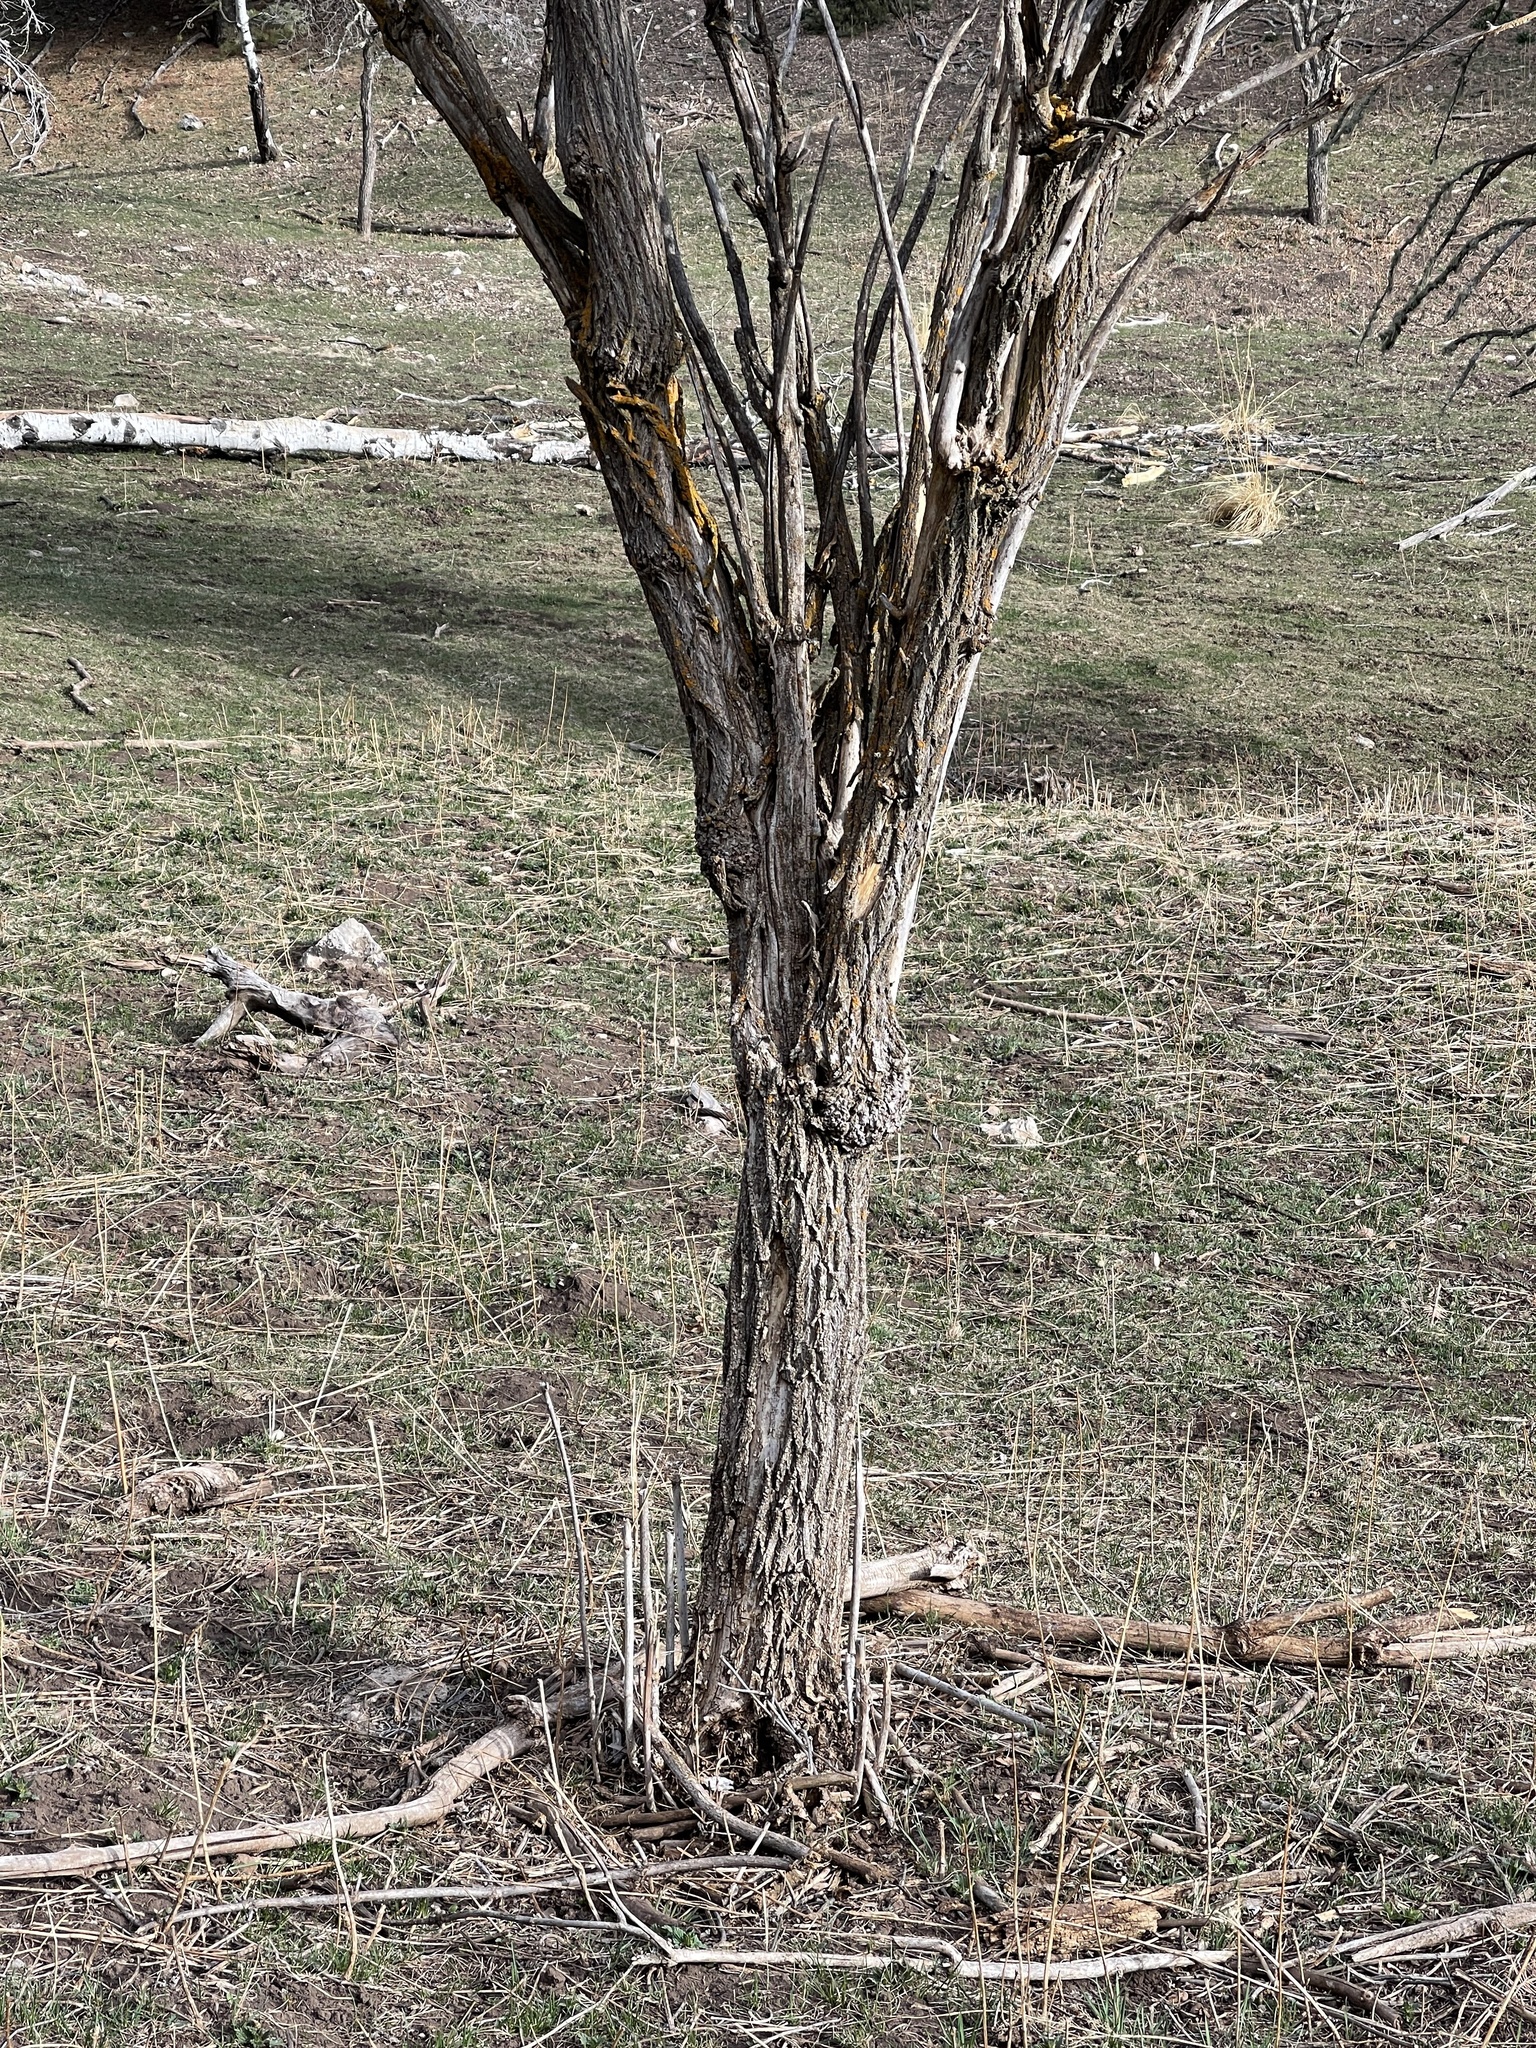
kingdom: Plantae
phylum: Tracheophyta
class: Magnoliopsida
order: Dipsacales
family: Viburnaceae
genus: Sambucus
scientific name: Sambucus cerulea
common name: Blue elder
